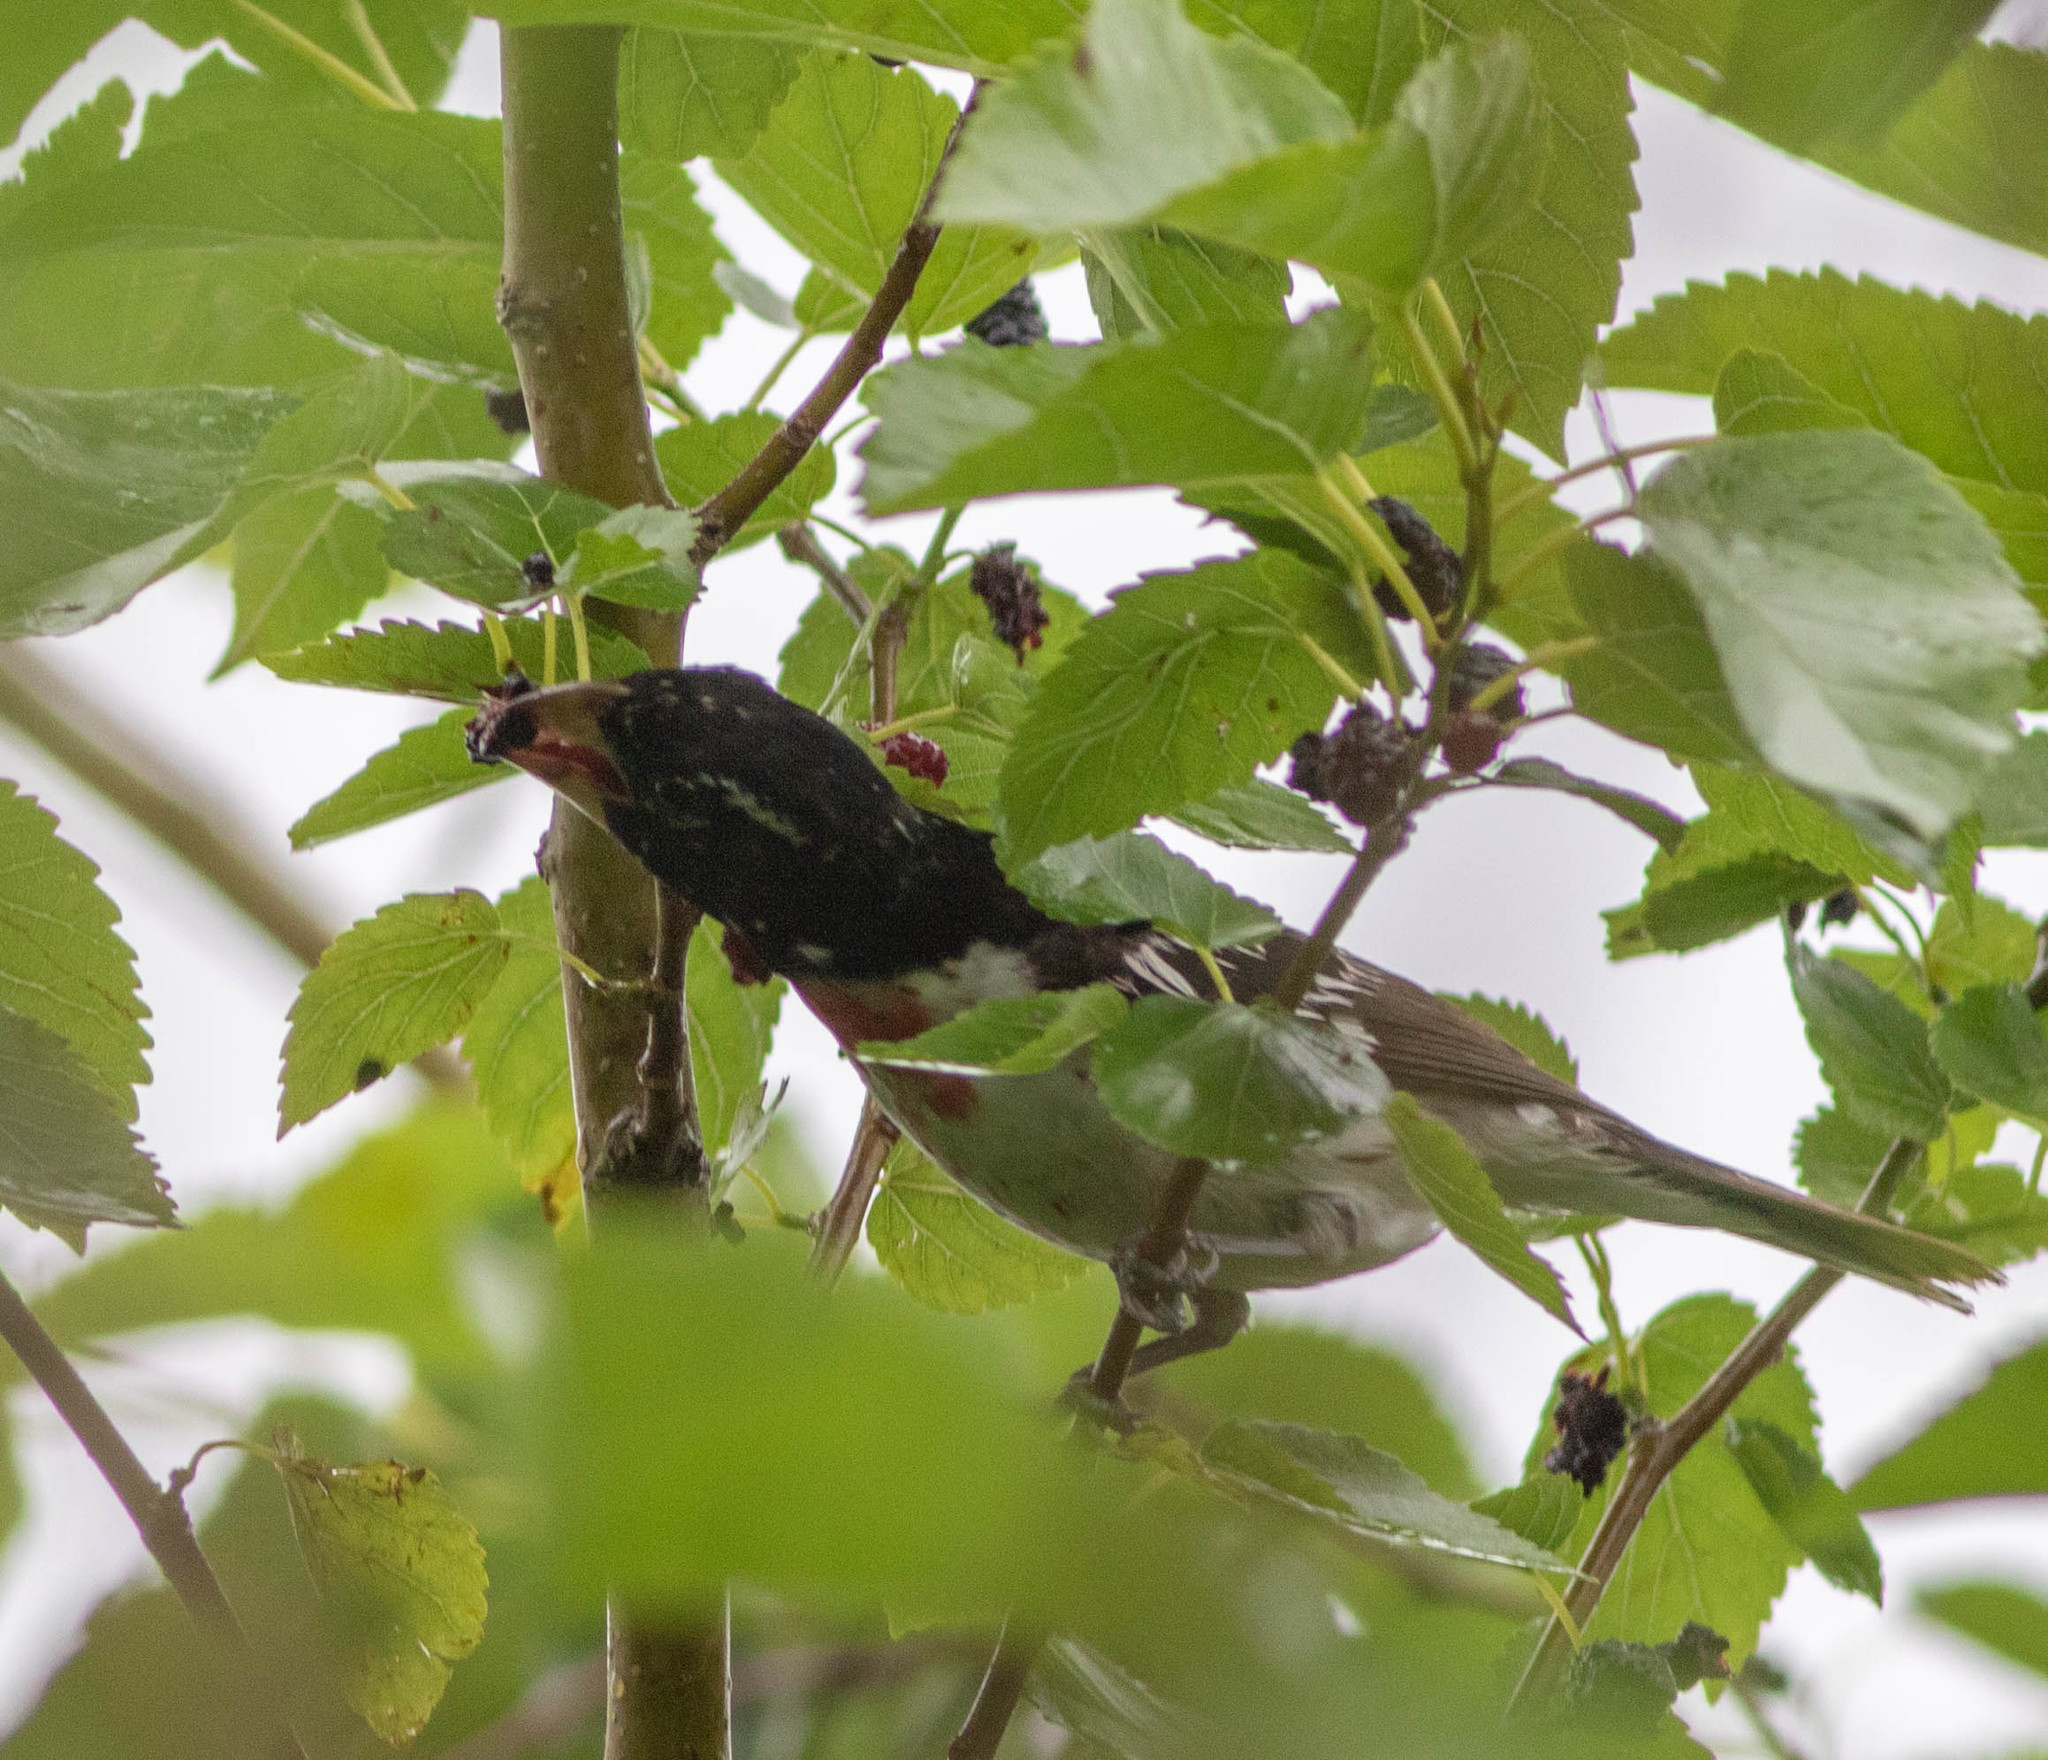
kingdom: Animalia
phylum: Chordata
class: Aves
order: Passeriformes
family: Cardinalidae
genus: Pheucticus
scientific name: Pheucticus ludovicianus
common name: Rose-breasted grosbeak
